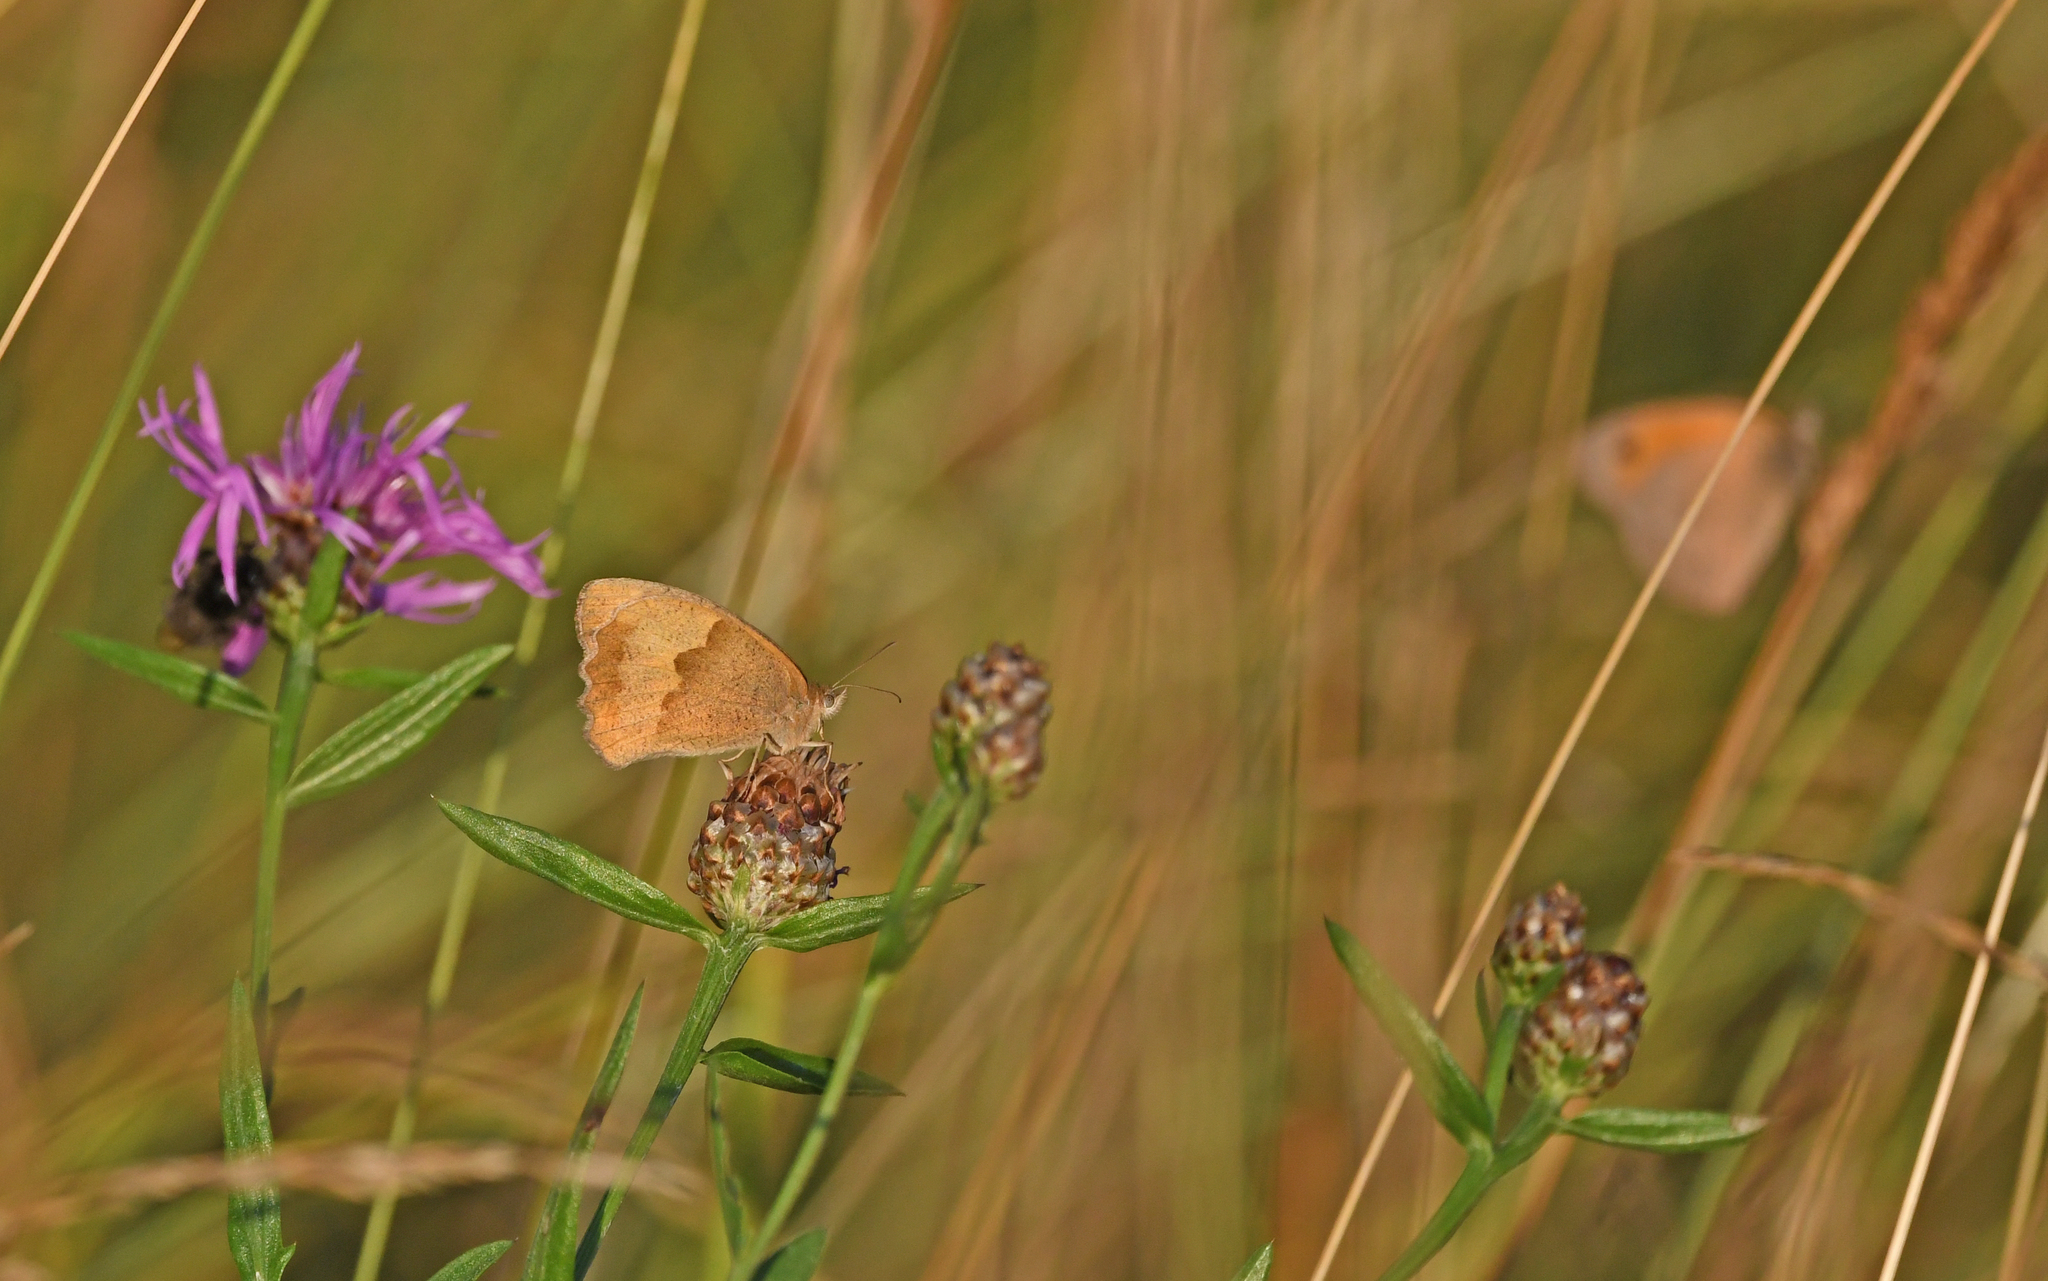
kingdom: Animalia
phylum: Arthropoda
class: Insecta
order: Lepidoptera
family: Nymphalidae
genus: Maniola
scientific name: Maniola jurtina
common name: Meadow brown
